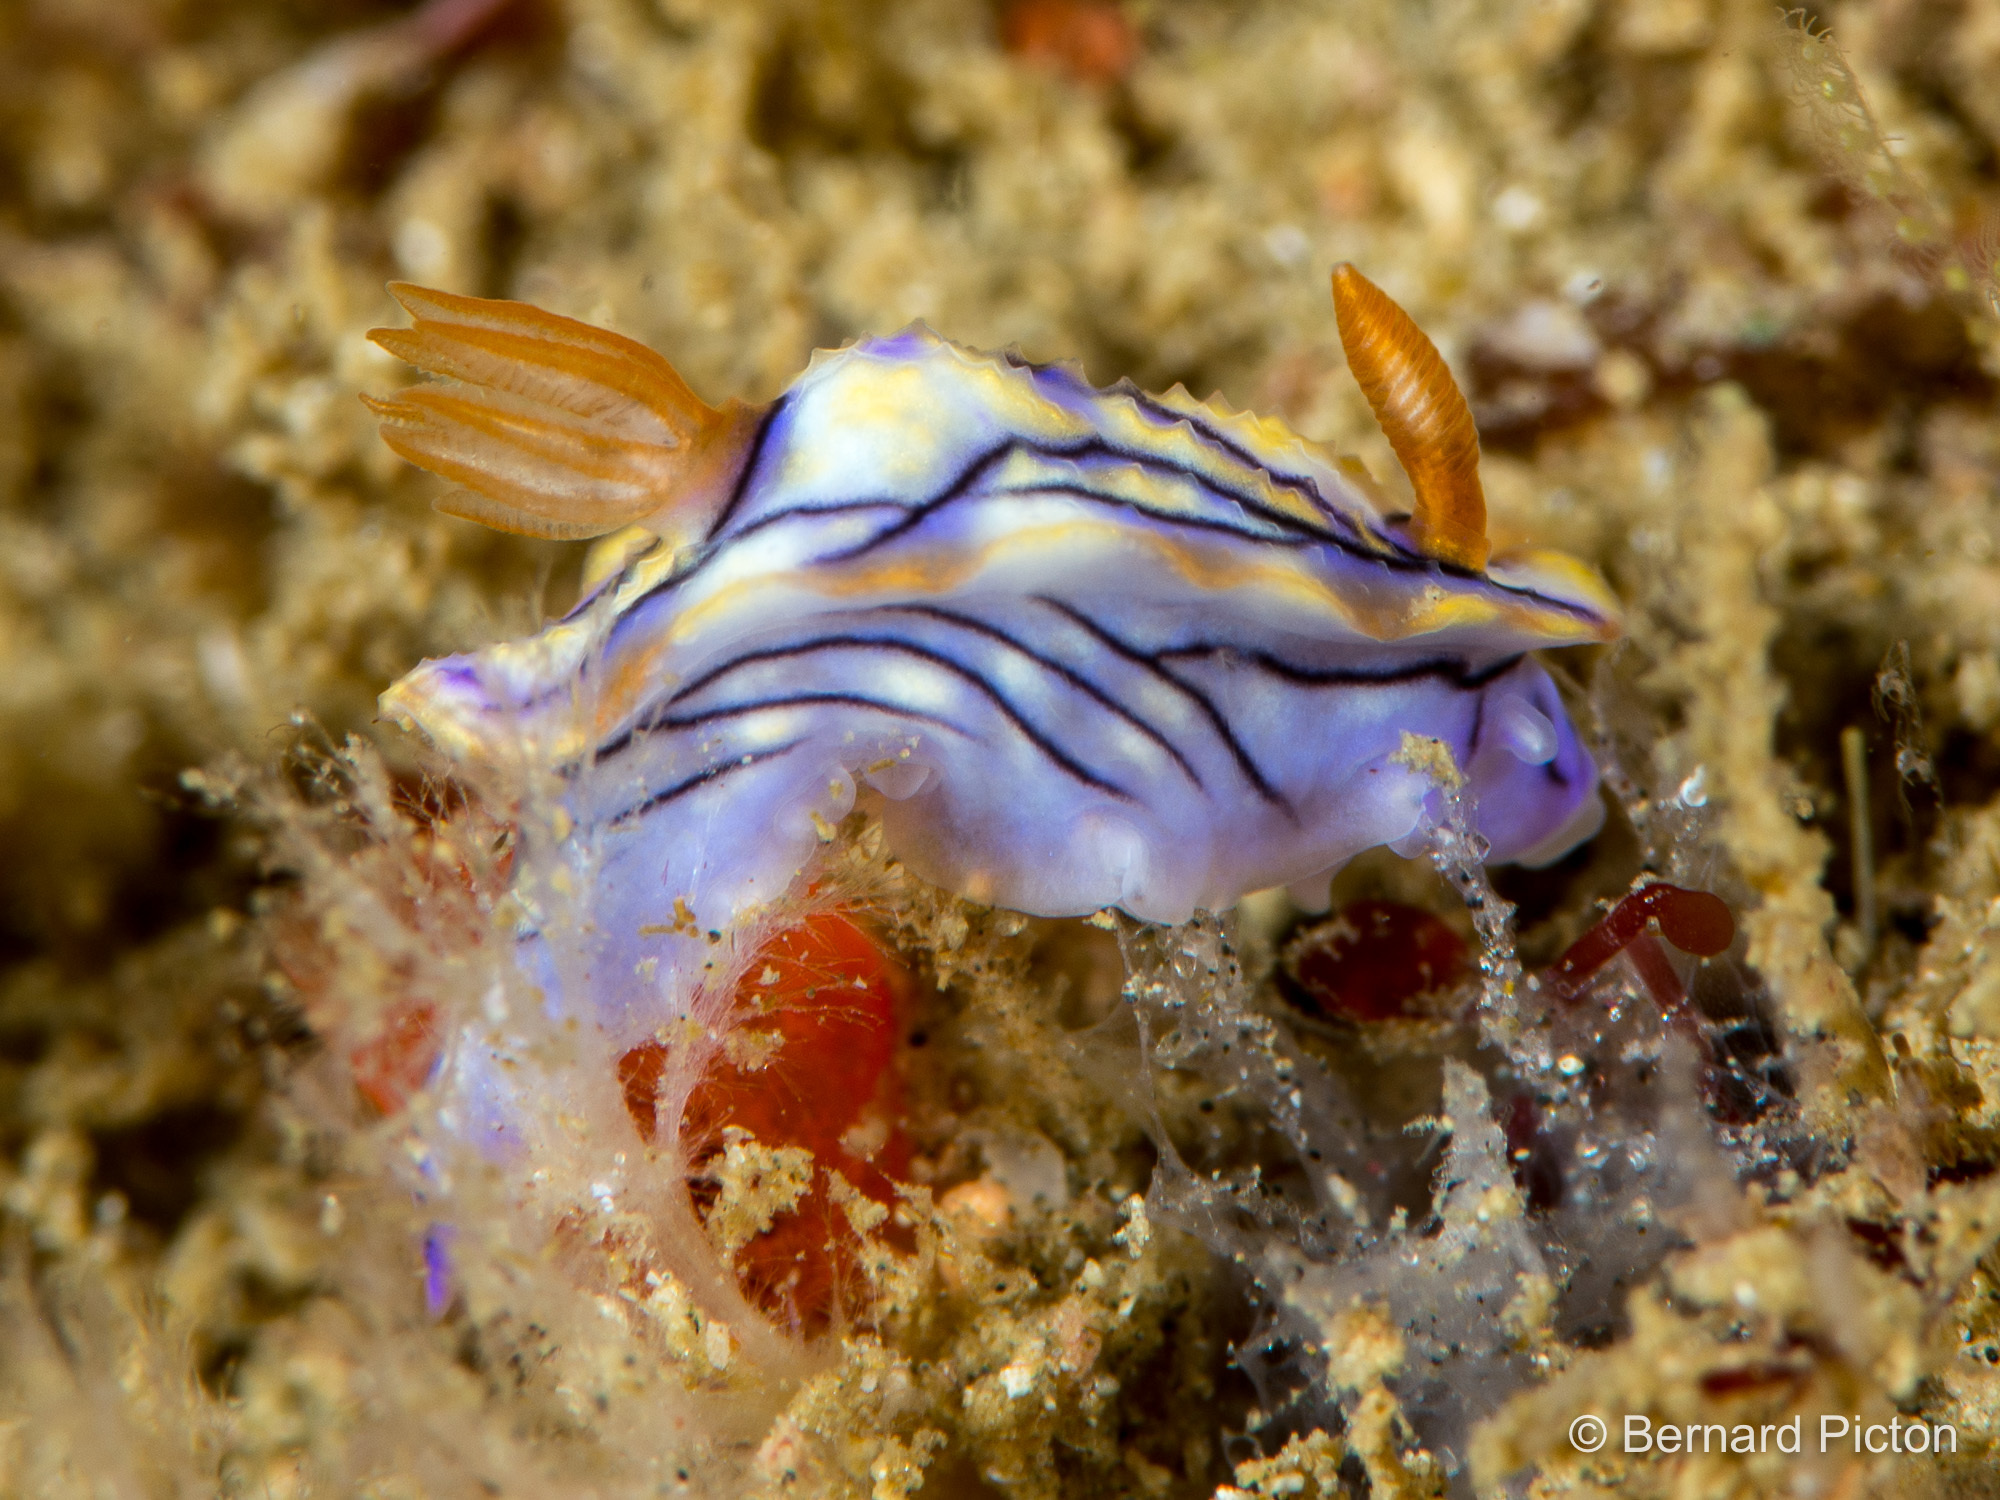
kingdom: Animalia
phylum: Mollusca
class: Gastropoda
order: Nudibranchia
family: Chromodorididae
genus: Hypselodoris
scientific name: Hypselodoris nigrostriata
